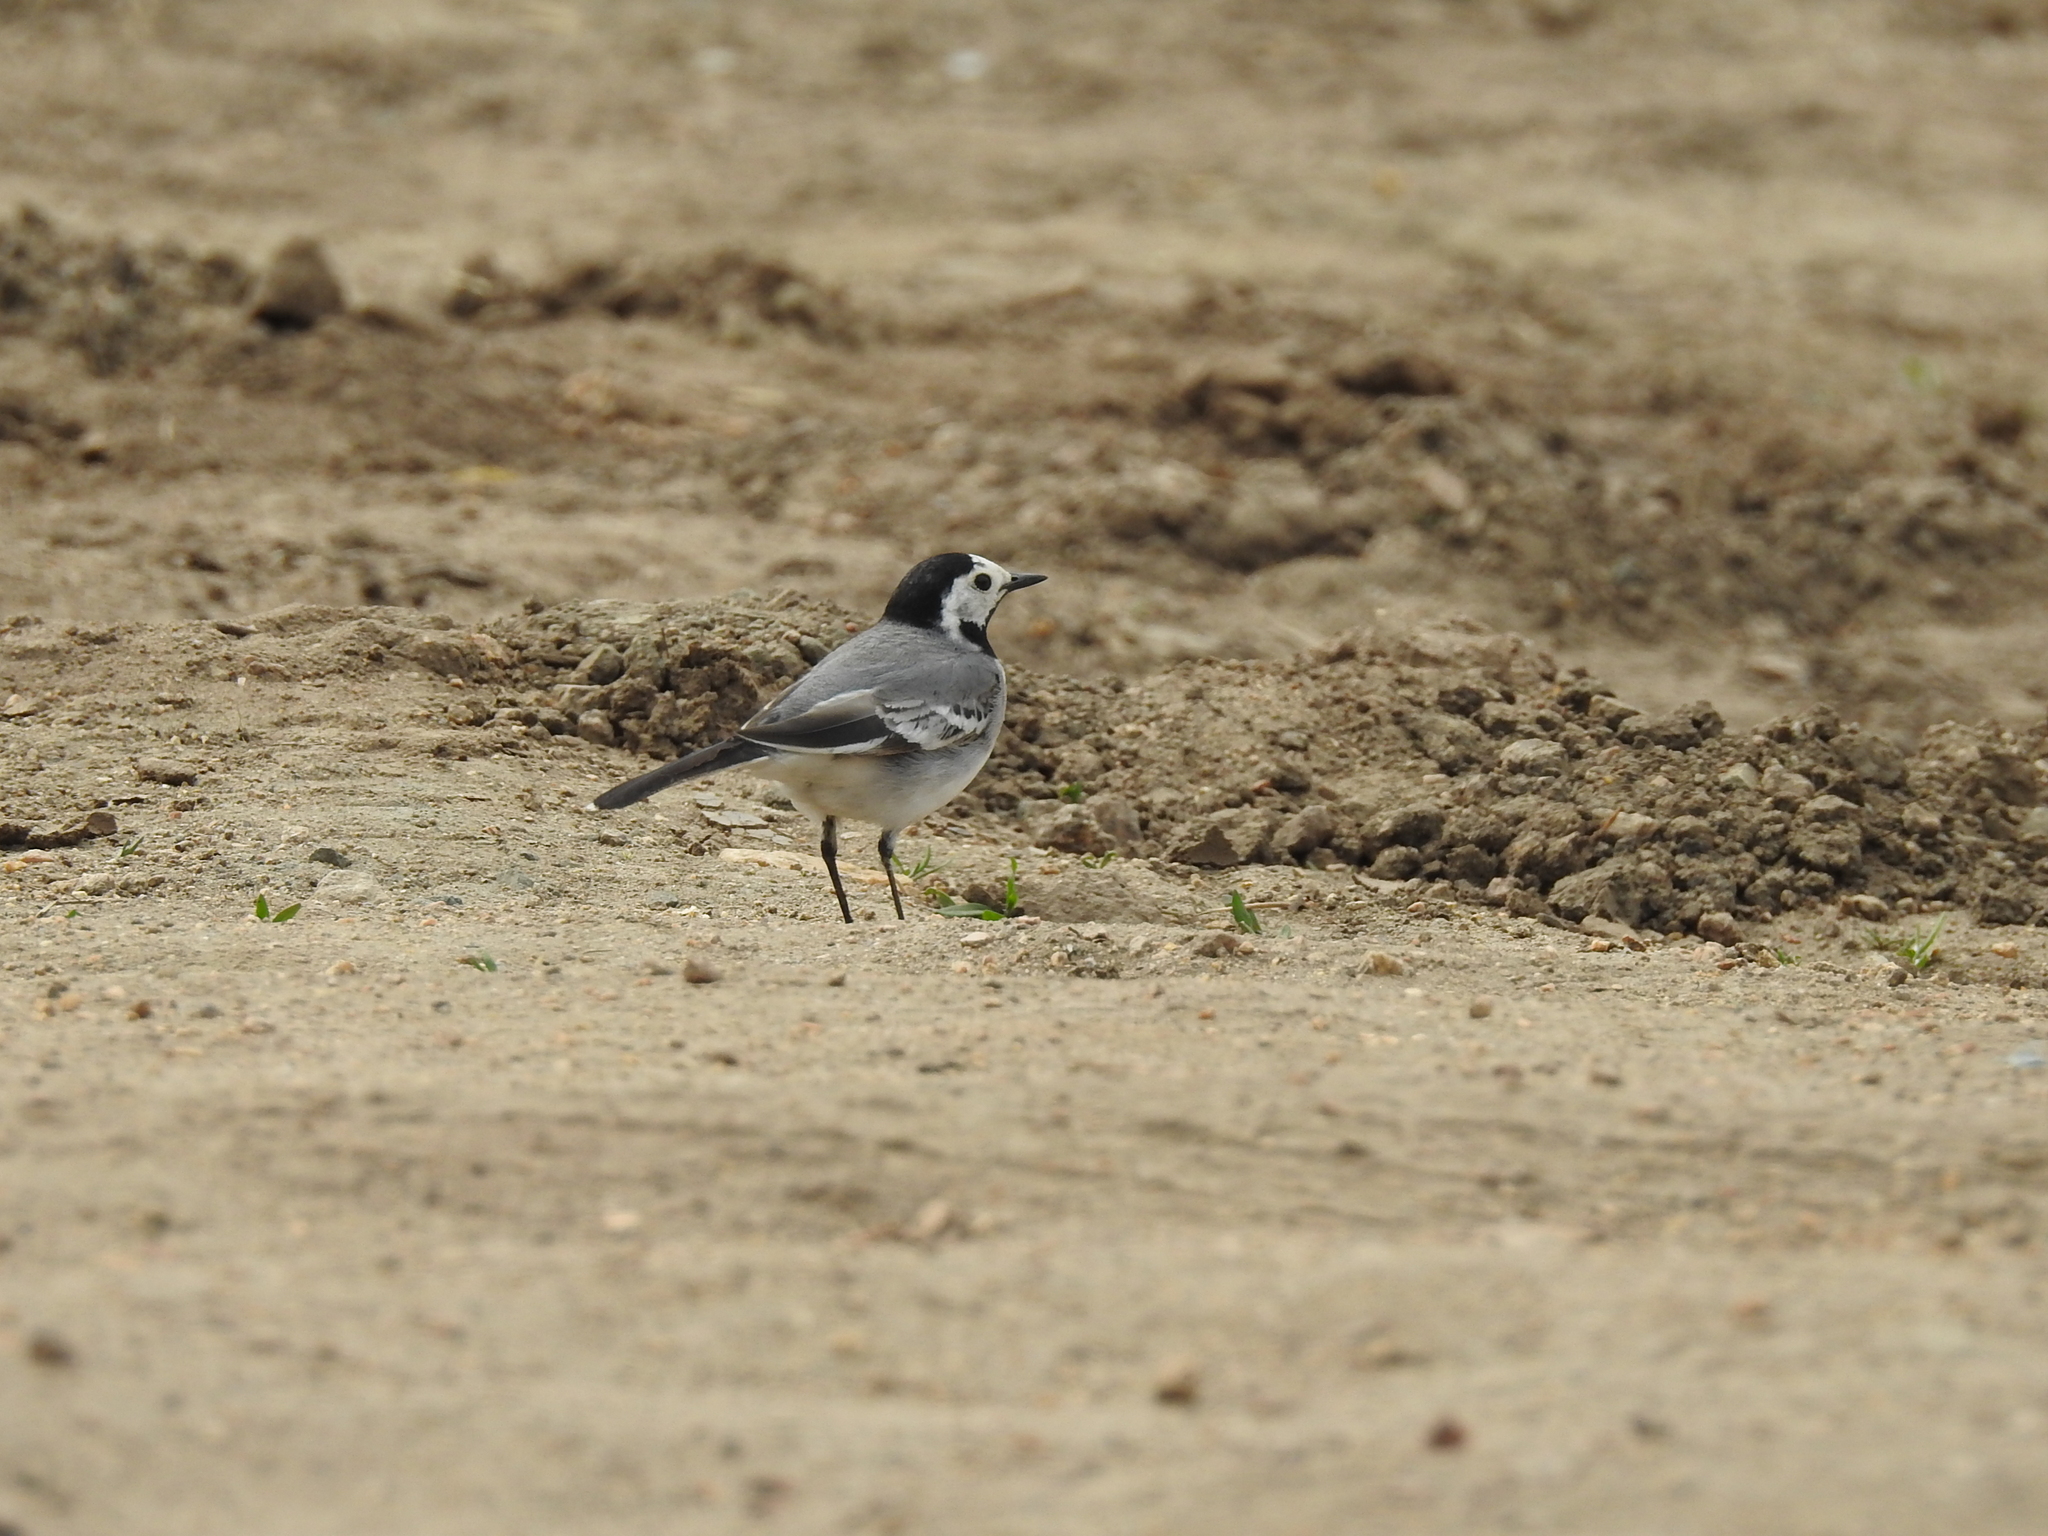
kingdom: Animalia
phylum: Chordata
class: Aves
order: Passeriformes
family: Motacillidae
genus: Motacilla
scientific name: Motacilla alba
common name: White wagtail
